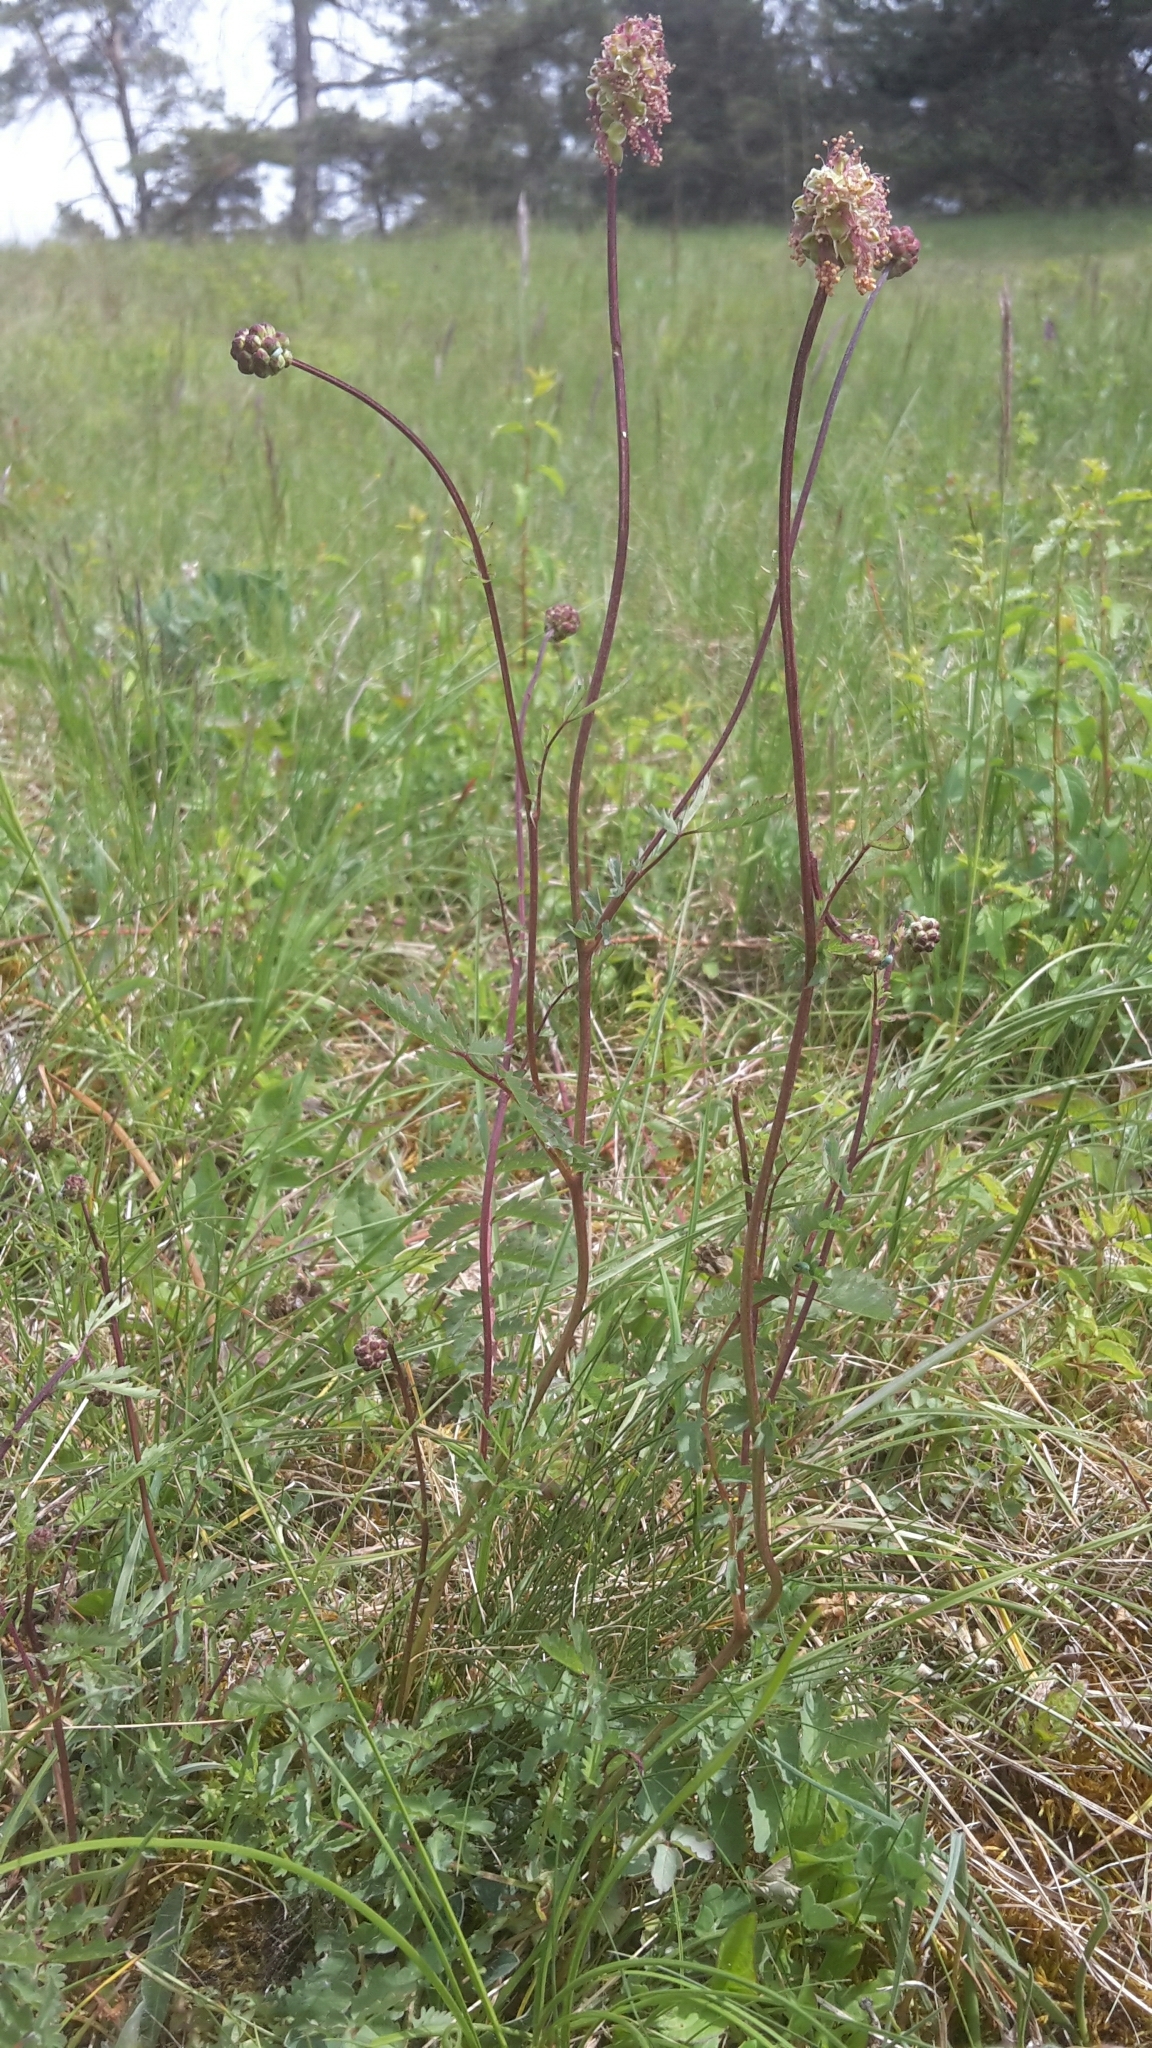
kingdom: Plantae
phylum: Tracheophyta
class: Magnoliopsida
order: Rosales
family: Rosaceae
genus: Poterium
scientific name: Poterium sanguisorba
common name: Salad burnet
